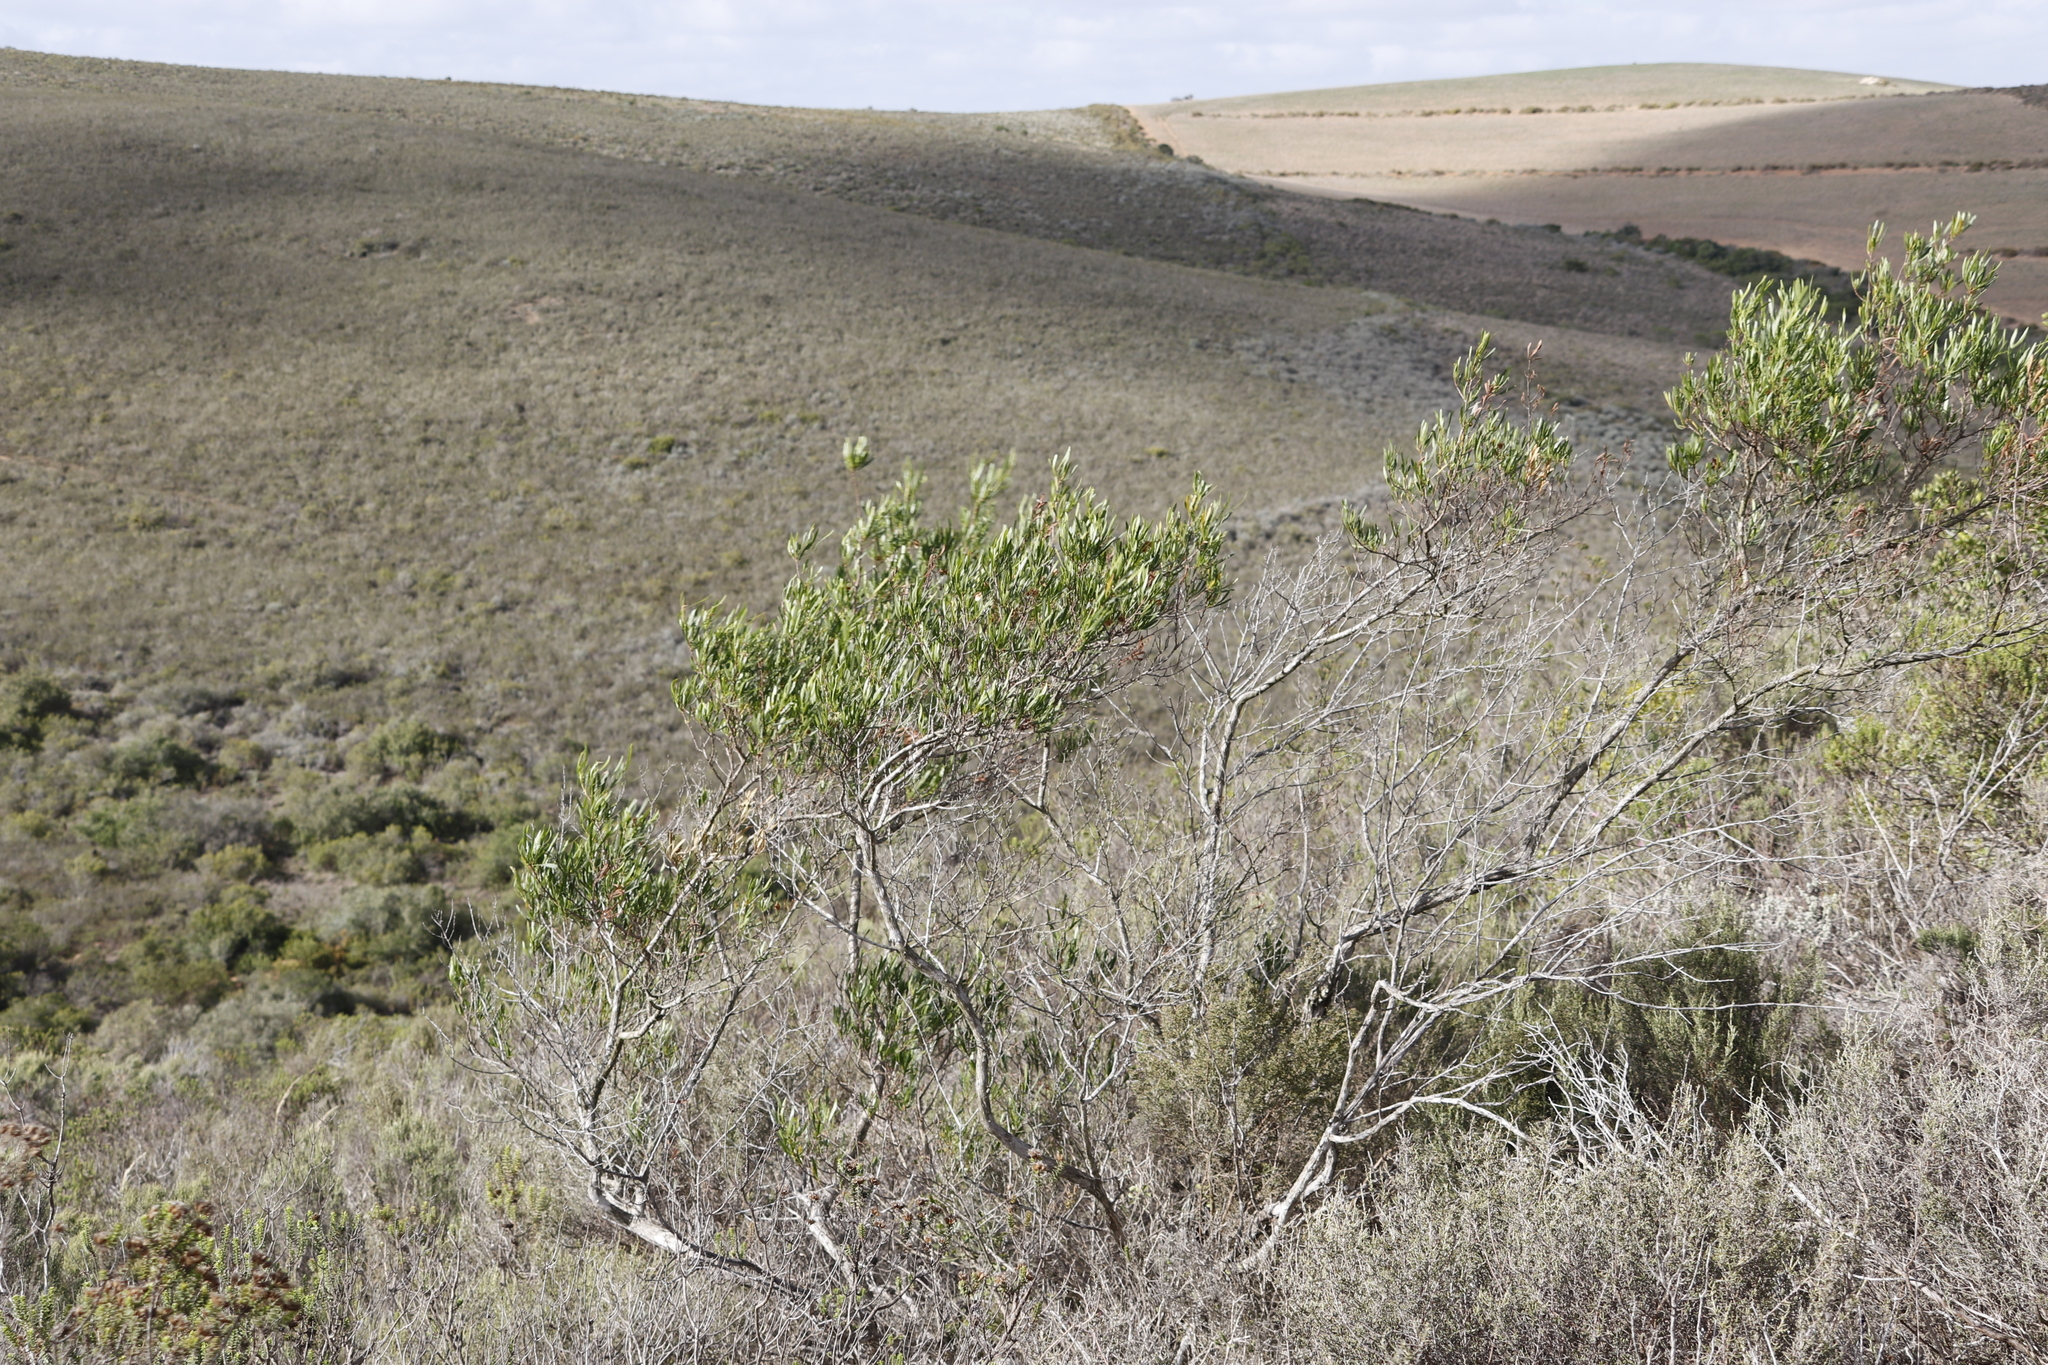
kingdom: Plantae
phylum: Tracheophyta
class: Magnoliopsida
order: Sapindales
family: Sapindaceae
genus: Dodonaea
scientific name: Dodonaea viscosa
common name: Hopbush
